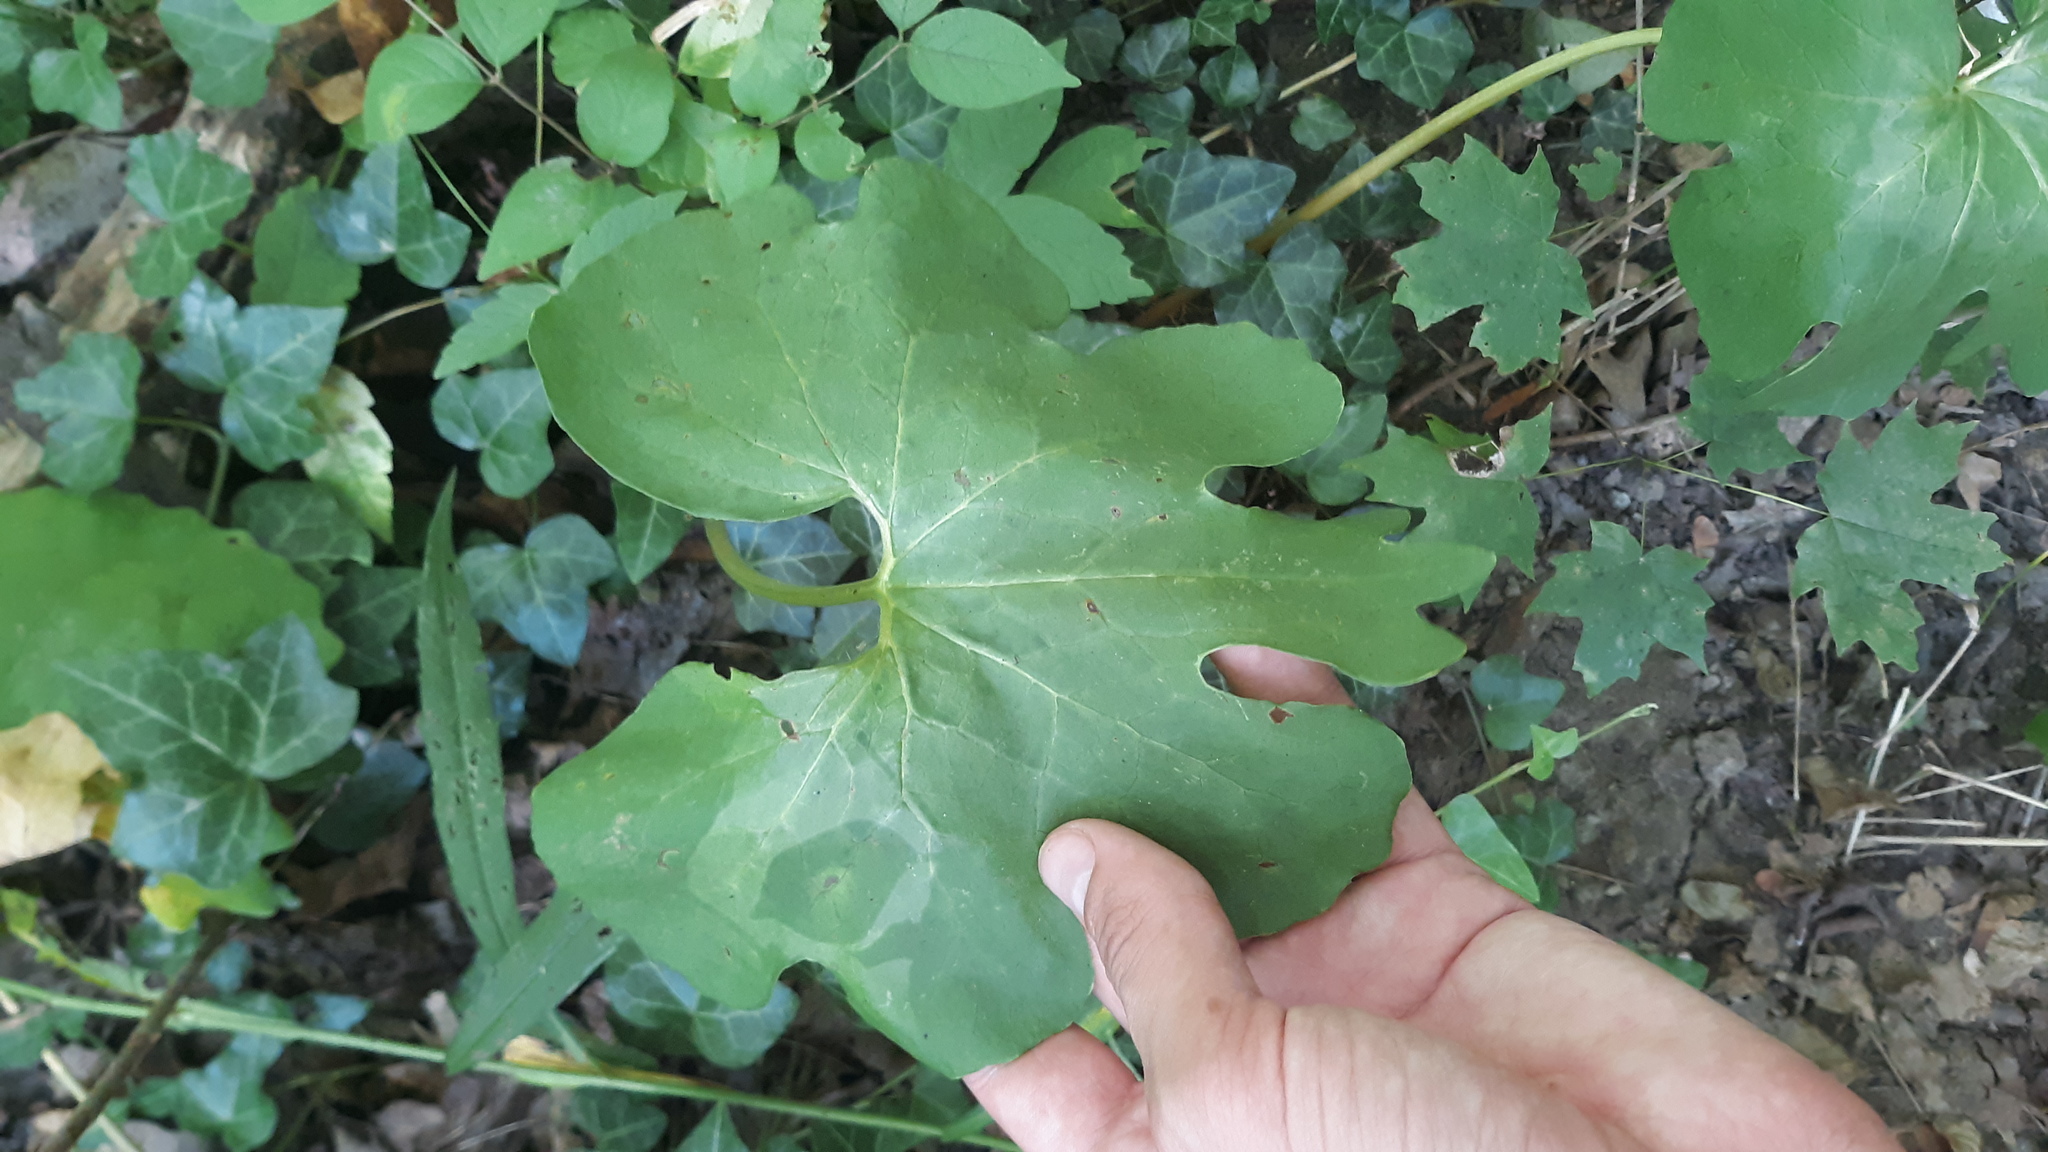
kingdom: Plantae
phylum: Tracheophyta
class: Magnoliopsida
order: Ranunculales
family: Papaveraceae
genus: Sanguinaria
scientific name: Sanguinaria canadensis
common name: Bloodroot
